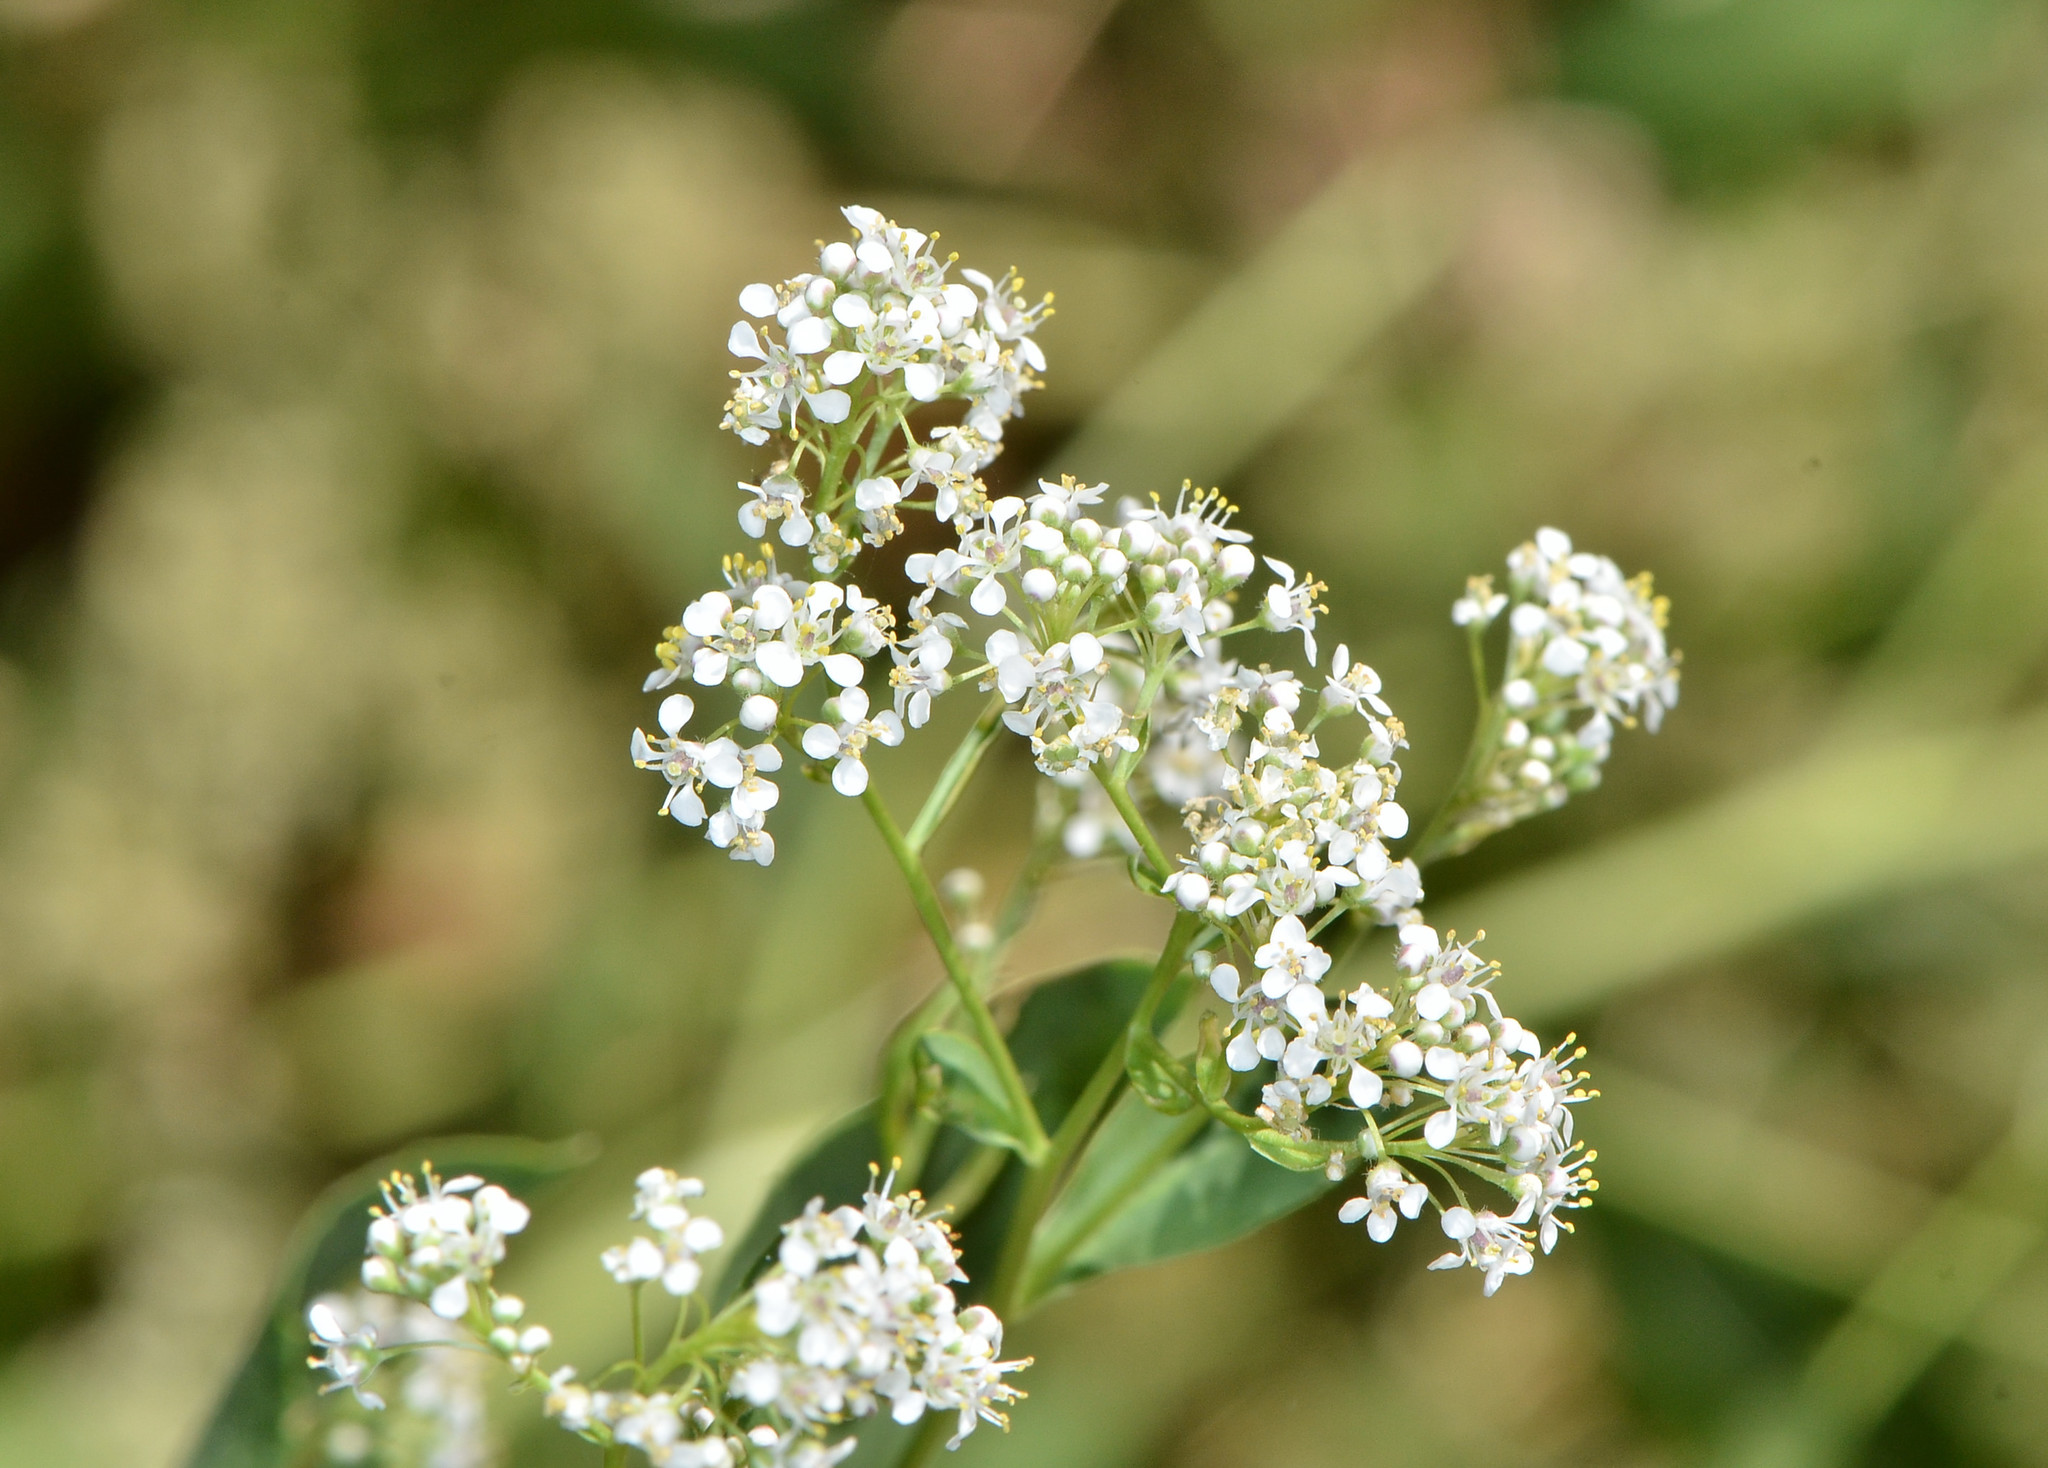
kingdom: Plantae
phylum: Tracheophyta
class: Magnoliopsida
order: Brassicales
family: Brassicaceae
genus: Lepidium
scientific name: Lepidium latifolium
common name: Dittander
